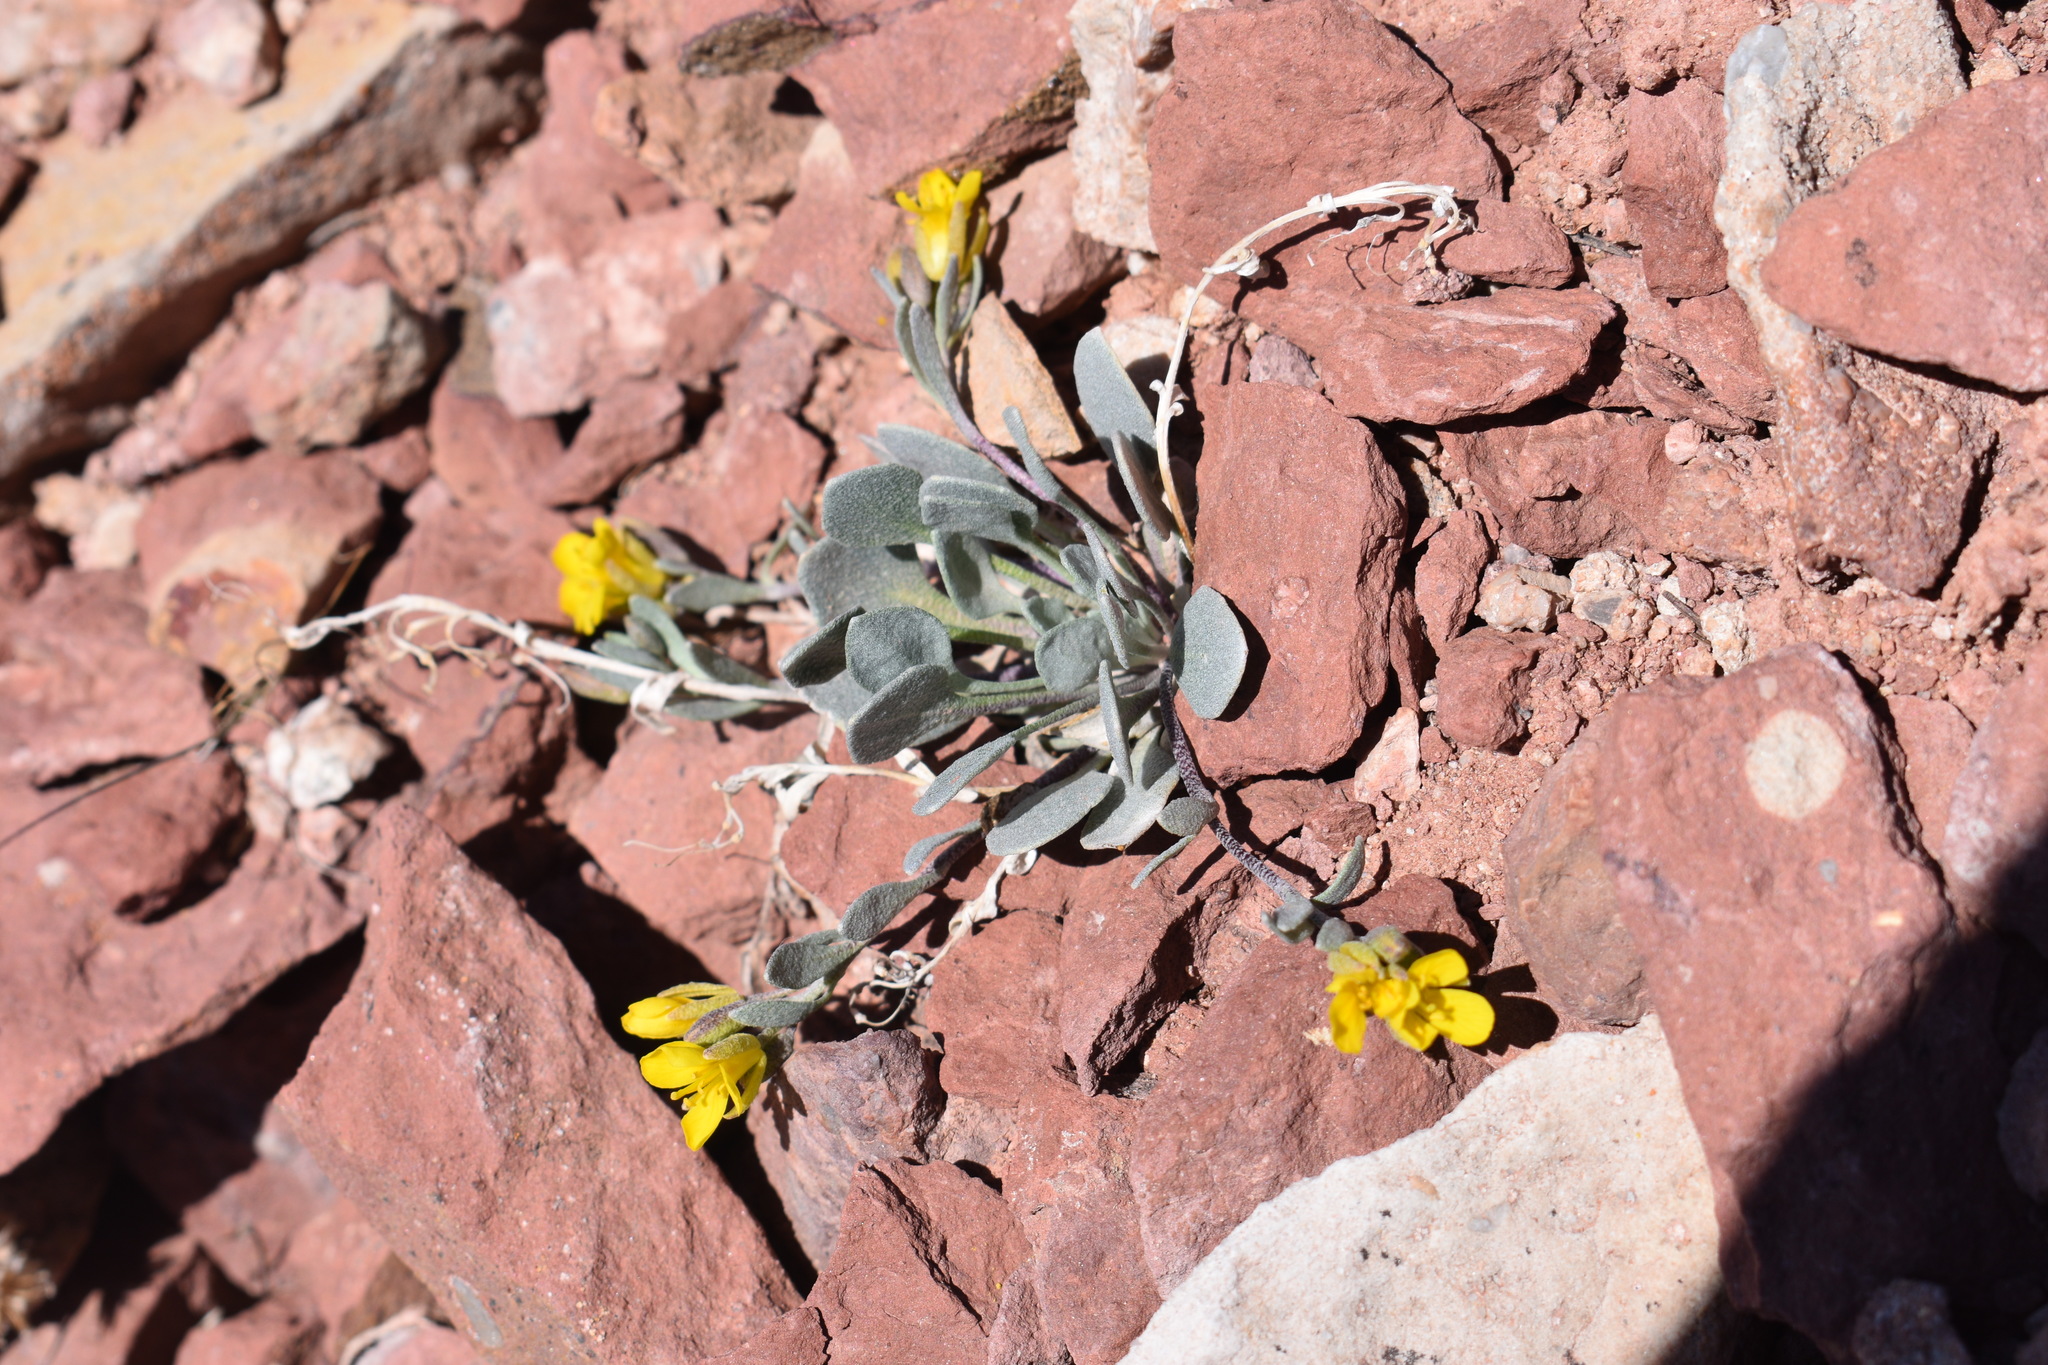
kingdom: Plantae
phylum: Tracheophyta
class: Magnoliopsida
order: Brassicales
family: Brassicaceae
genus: Physaria
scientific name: Physaria alpina
